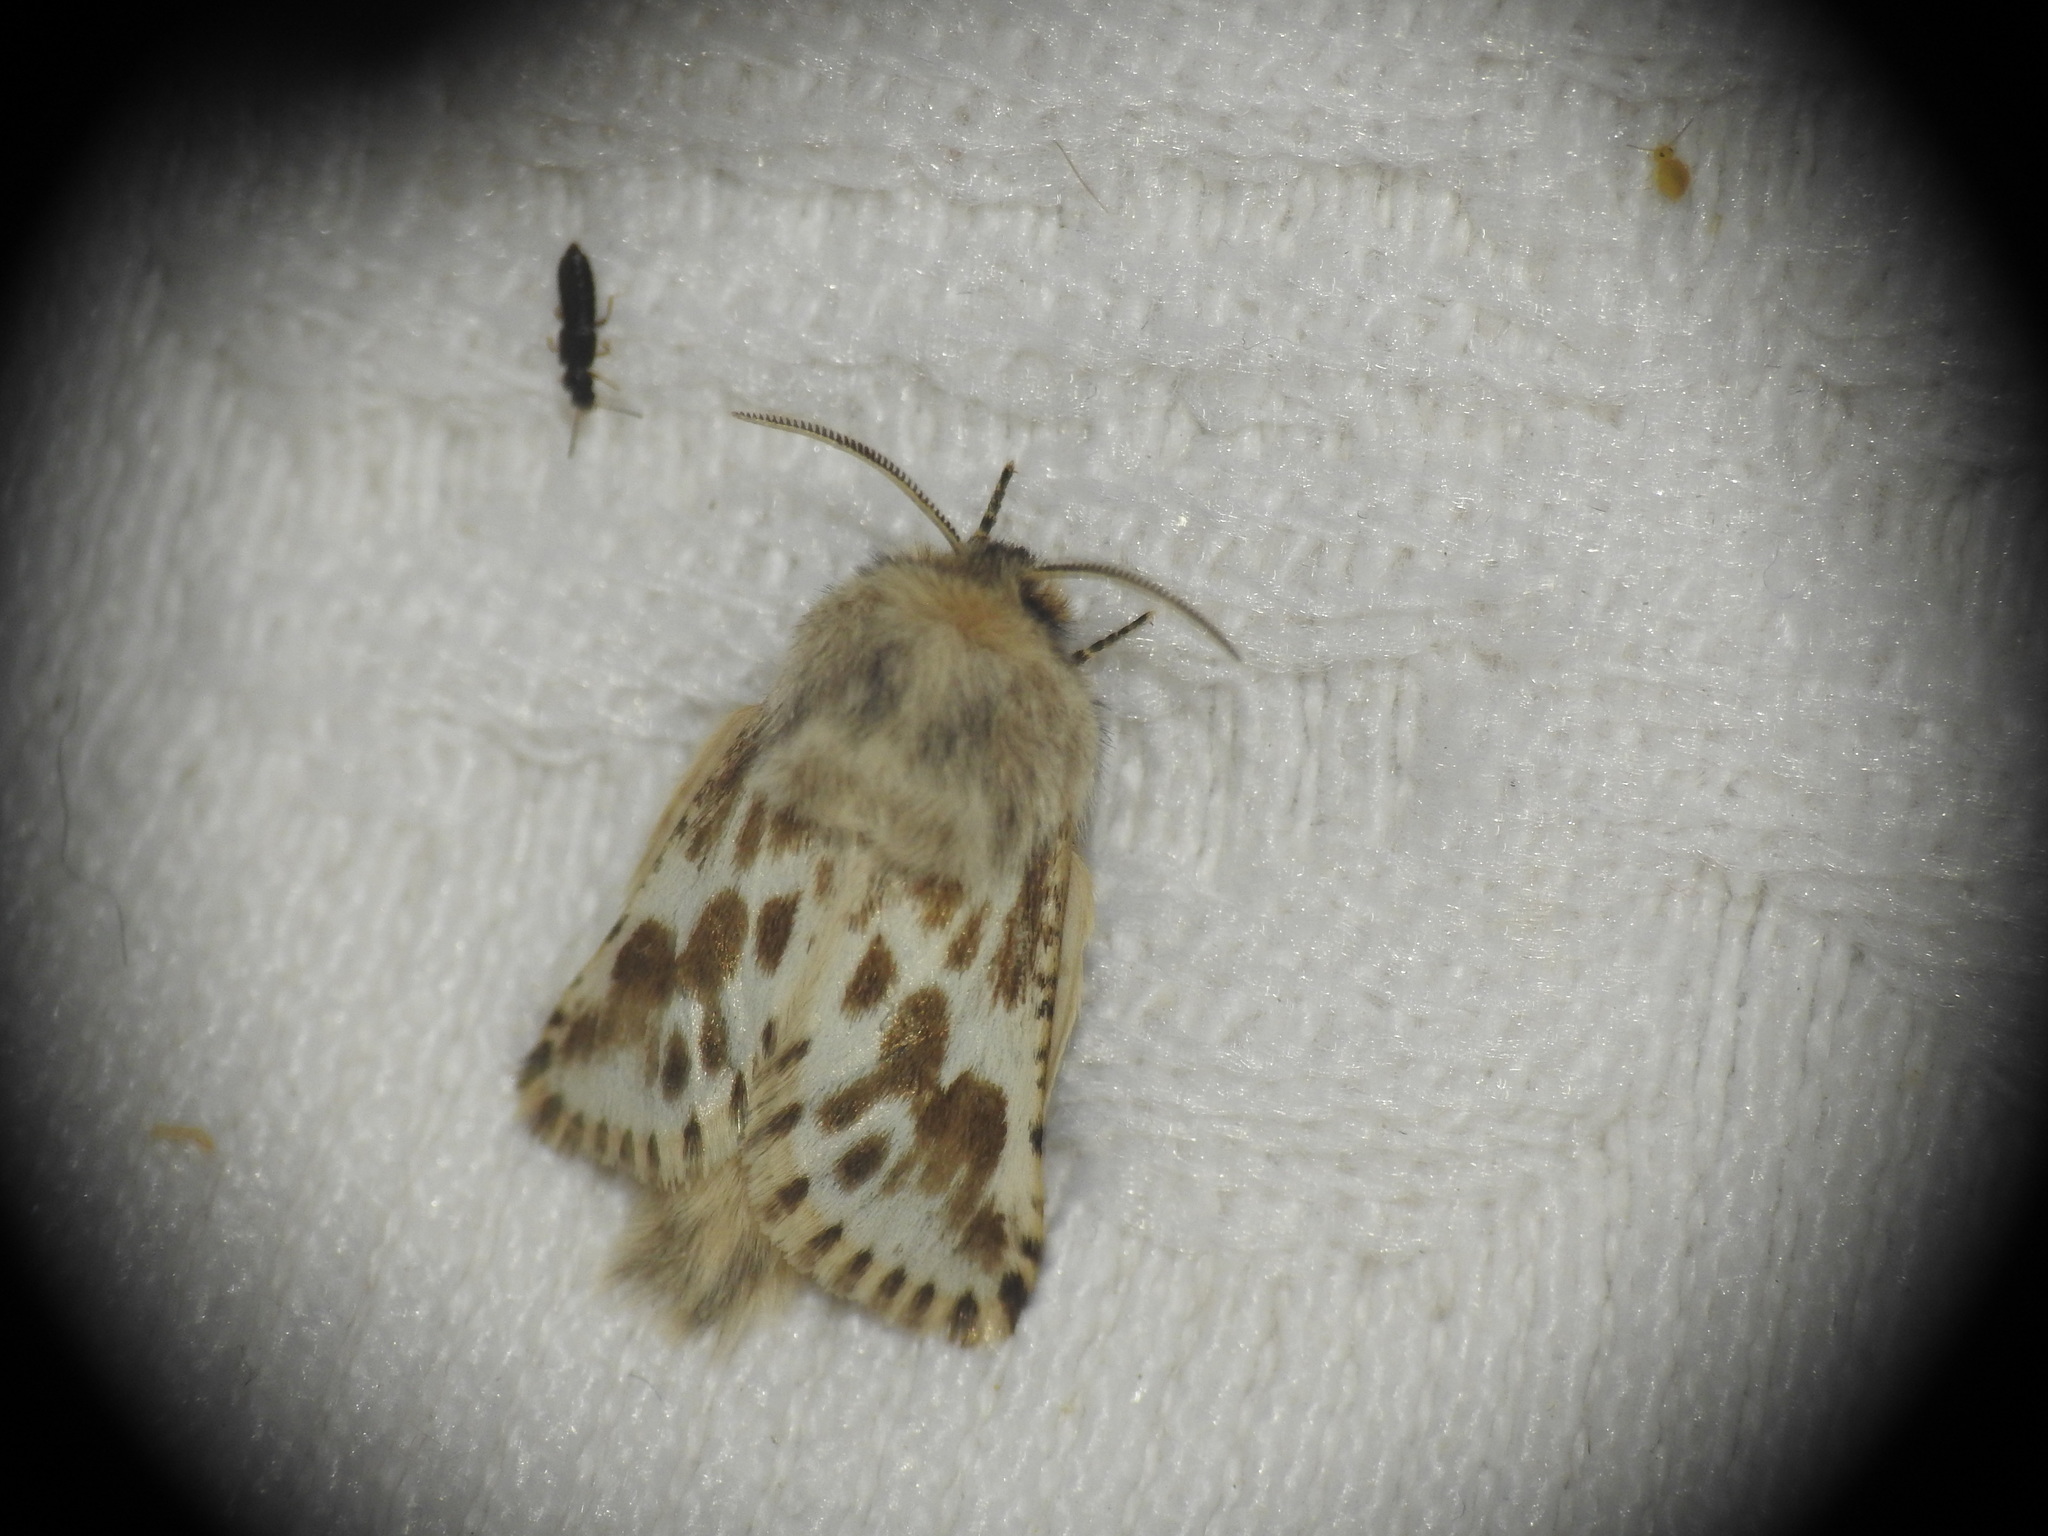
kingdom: Animalia
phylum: Arthropoda
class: Insecta
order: Lepidoptera
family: Cossidae
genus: Dyspessa
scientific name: Dyspessa ulula
